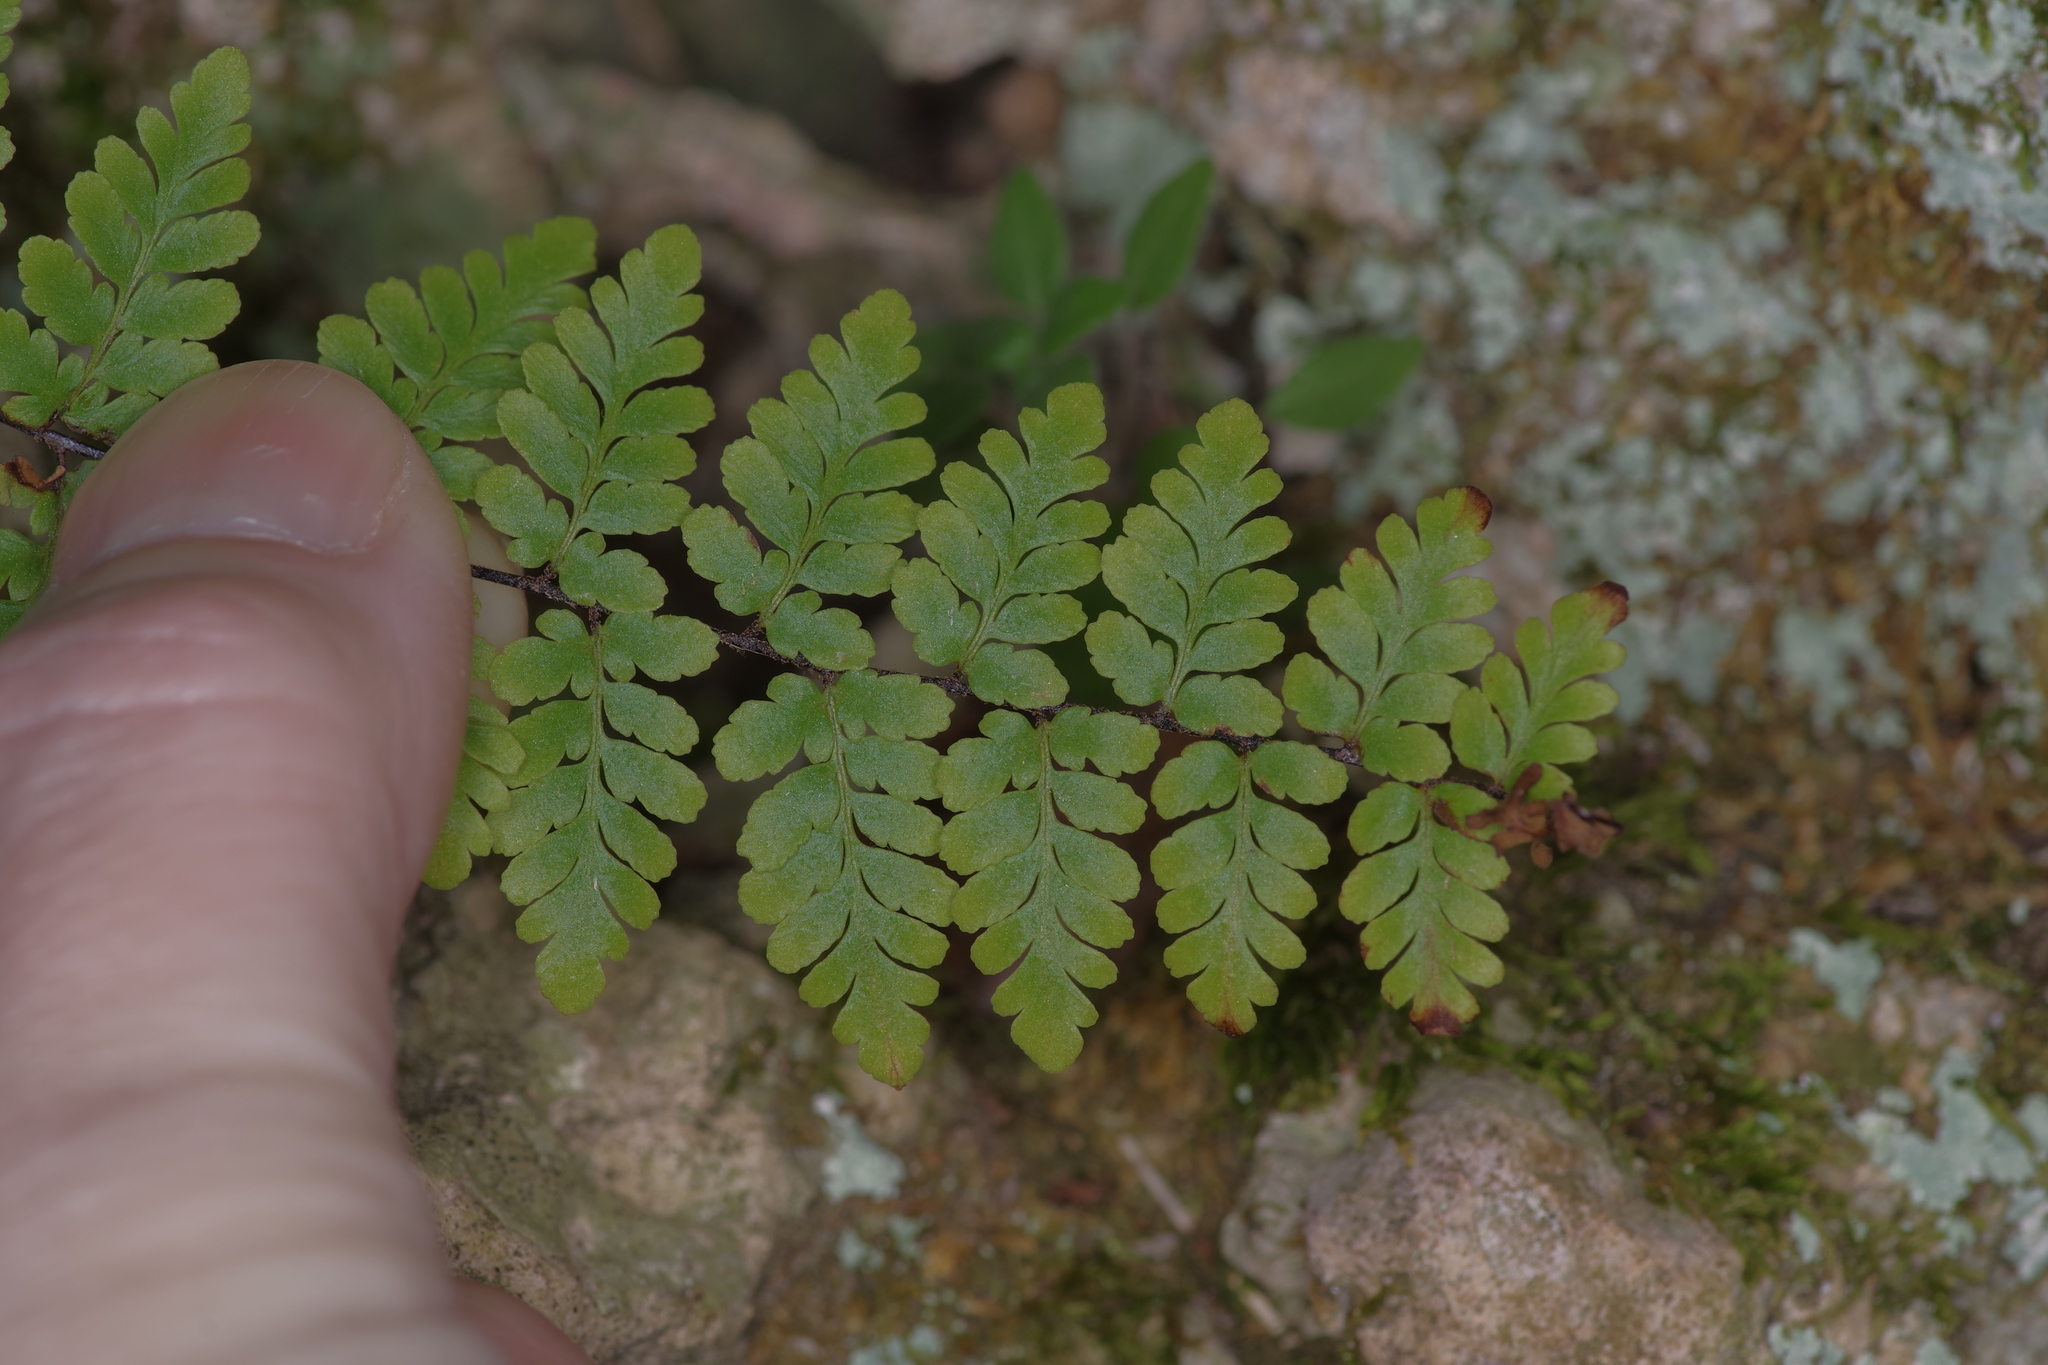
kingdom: Plantae
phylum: Tracheophyta
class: Polypodiopsida
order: Polypodiales
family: Pteridaceae
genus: Myriopteris
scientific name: Myriopteris alabamensis
